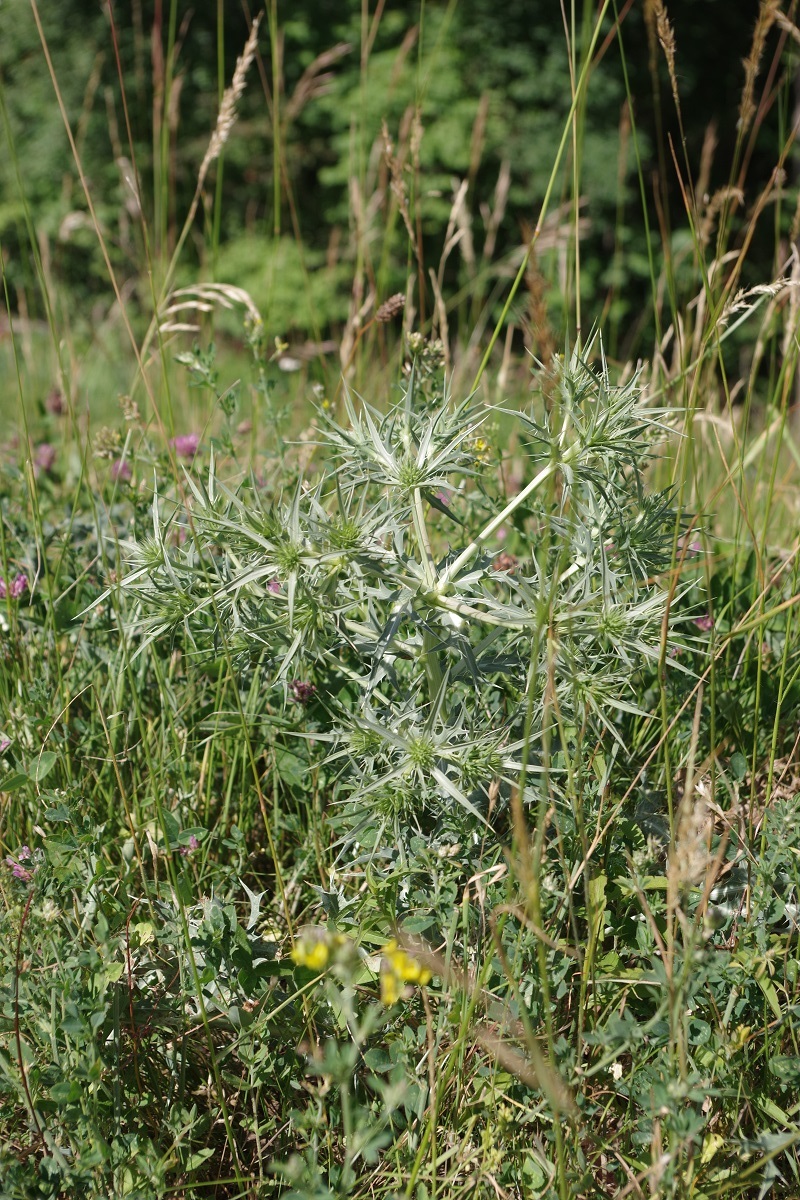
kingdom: Plantae
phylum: Tracheophyta
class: Magnoliopsida
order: Apiales
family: Apiaceae
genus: Eryngium
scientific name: Eryngium campestre
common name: Field eryngo
